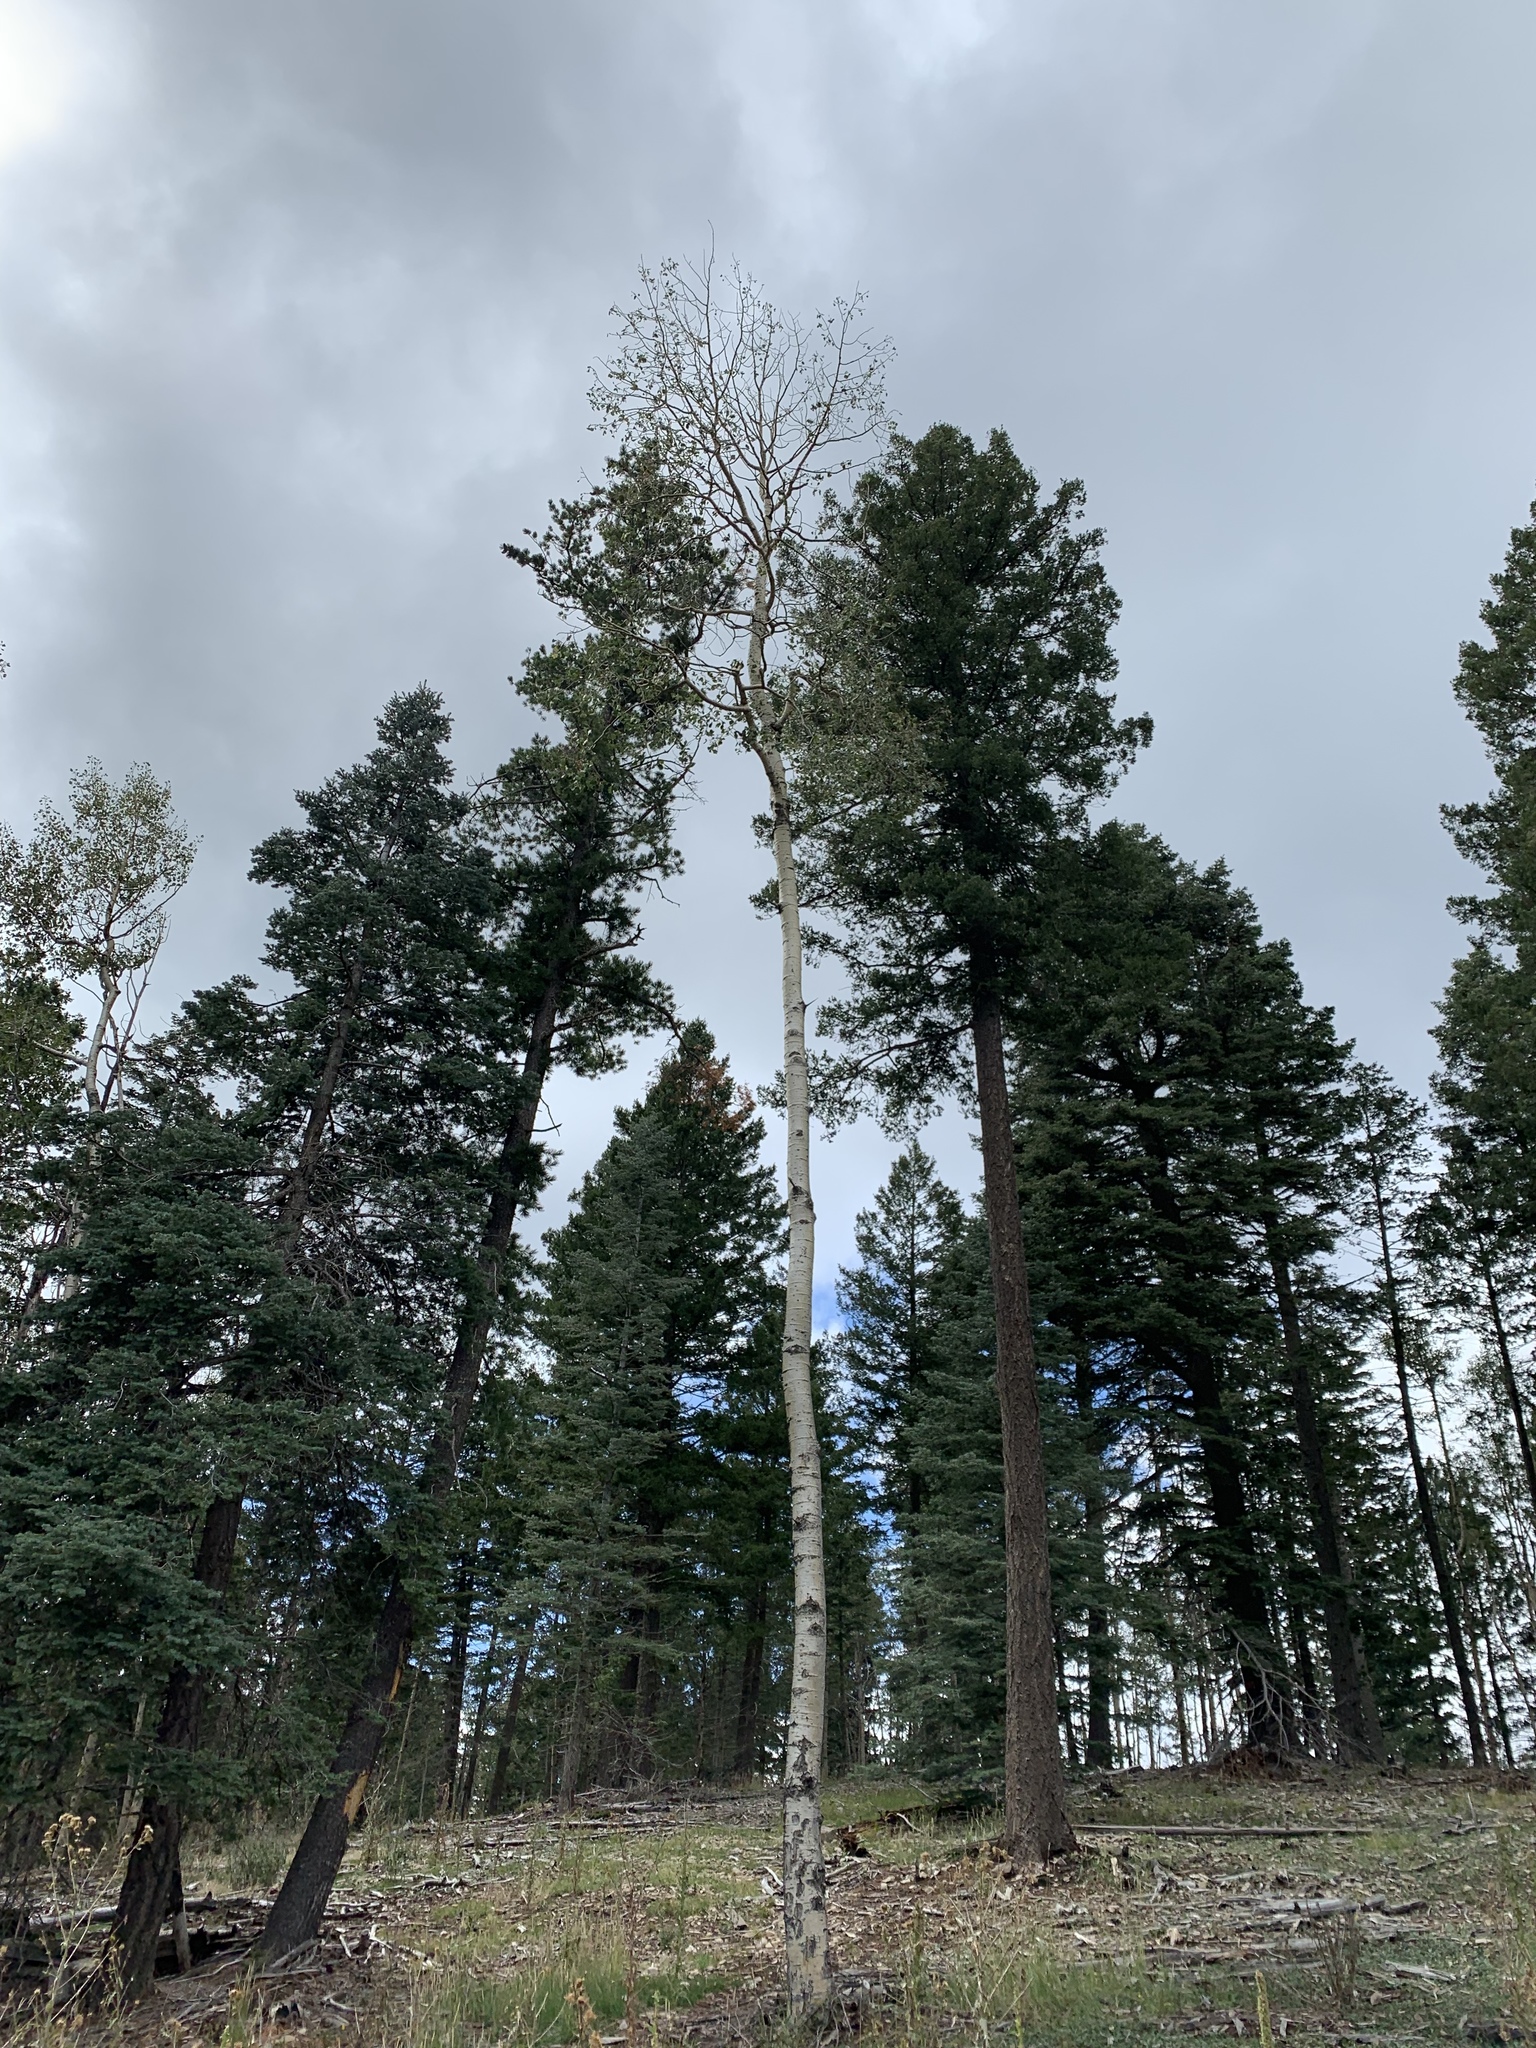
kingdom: Plantae
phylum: Tracheophyta
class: Magnoliopsida
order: Malpighiales
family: Salicaceae
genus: Populus
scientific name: Populus tremuloides
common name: Quaking aspen
